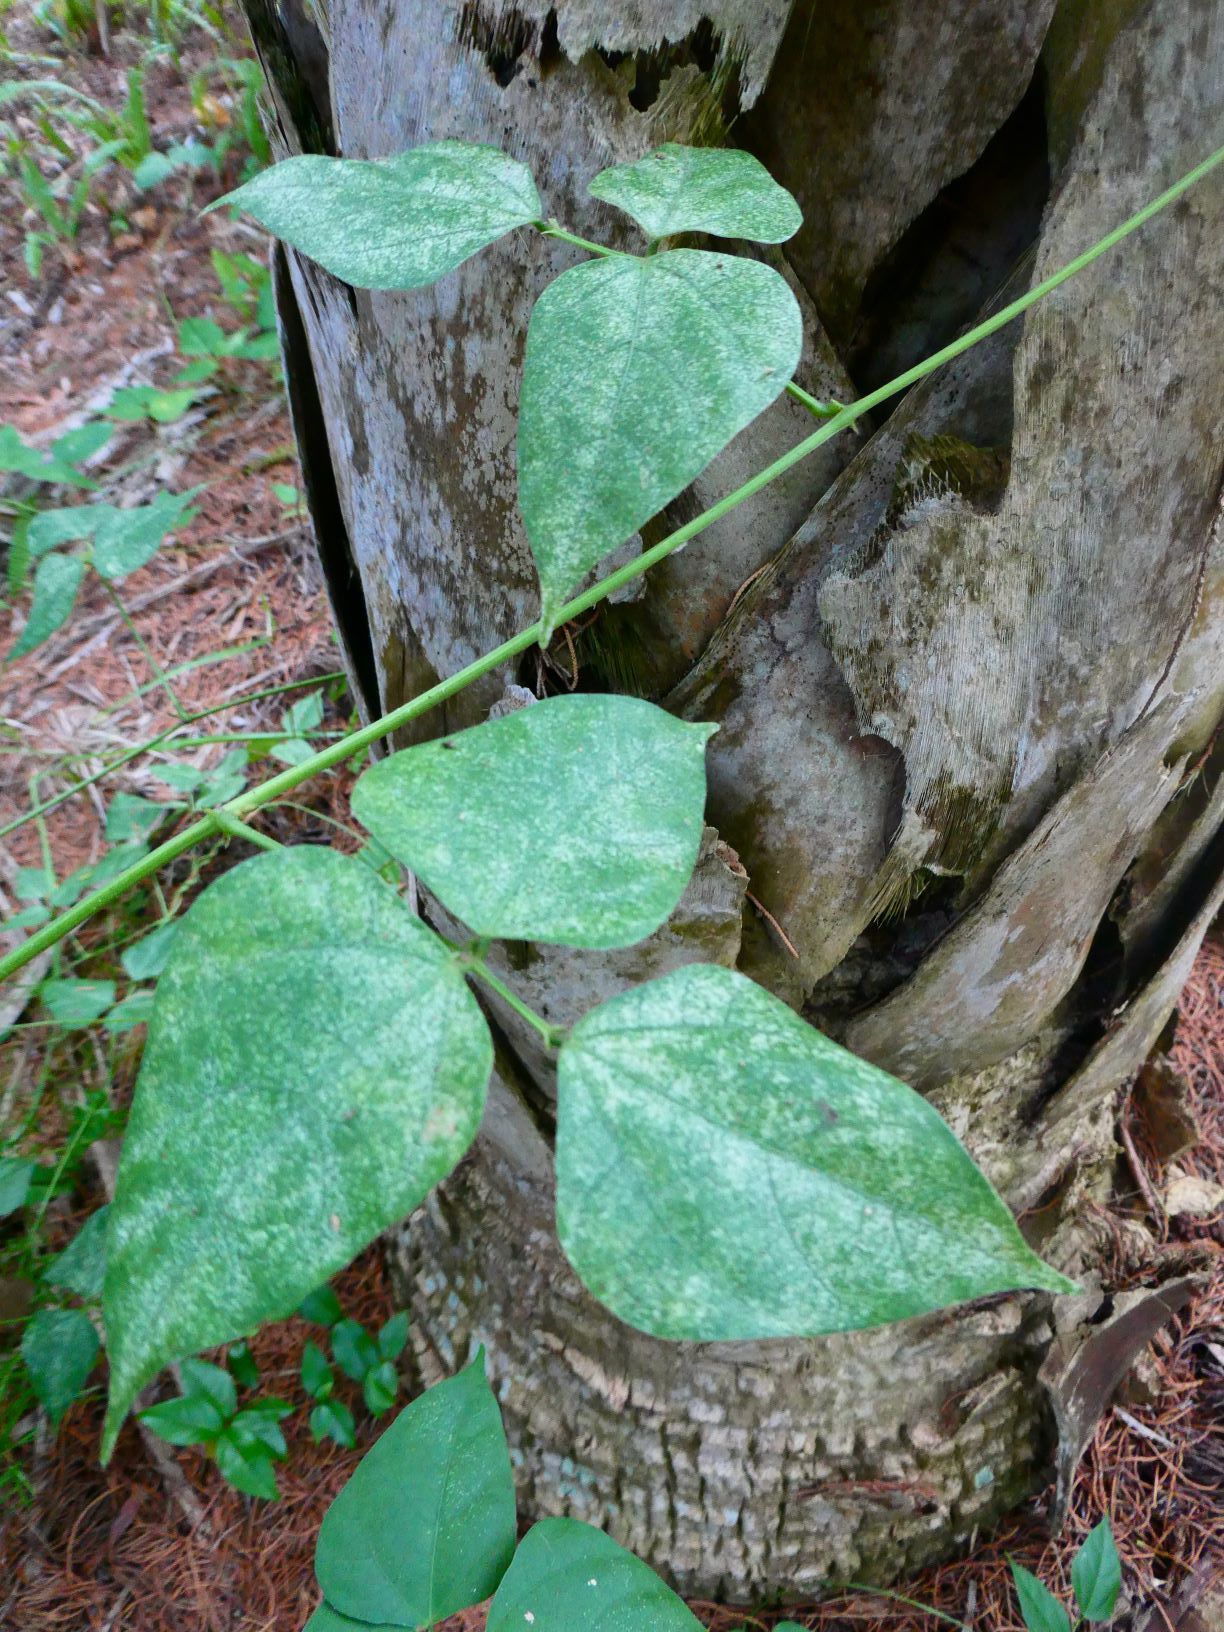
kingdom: Plantae
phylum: Tracheophyta
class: Magnoliopsida
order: Fabales
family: Fabaceae
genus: Phaseolus
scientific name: Phaseolus lignosus
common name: Bermuda bean
